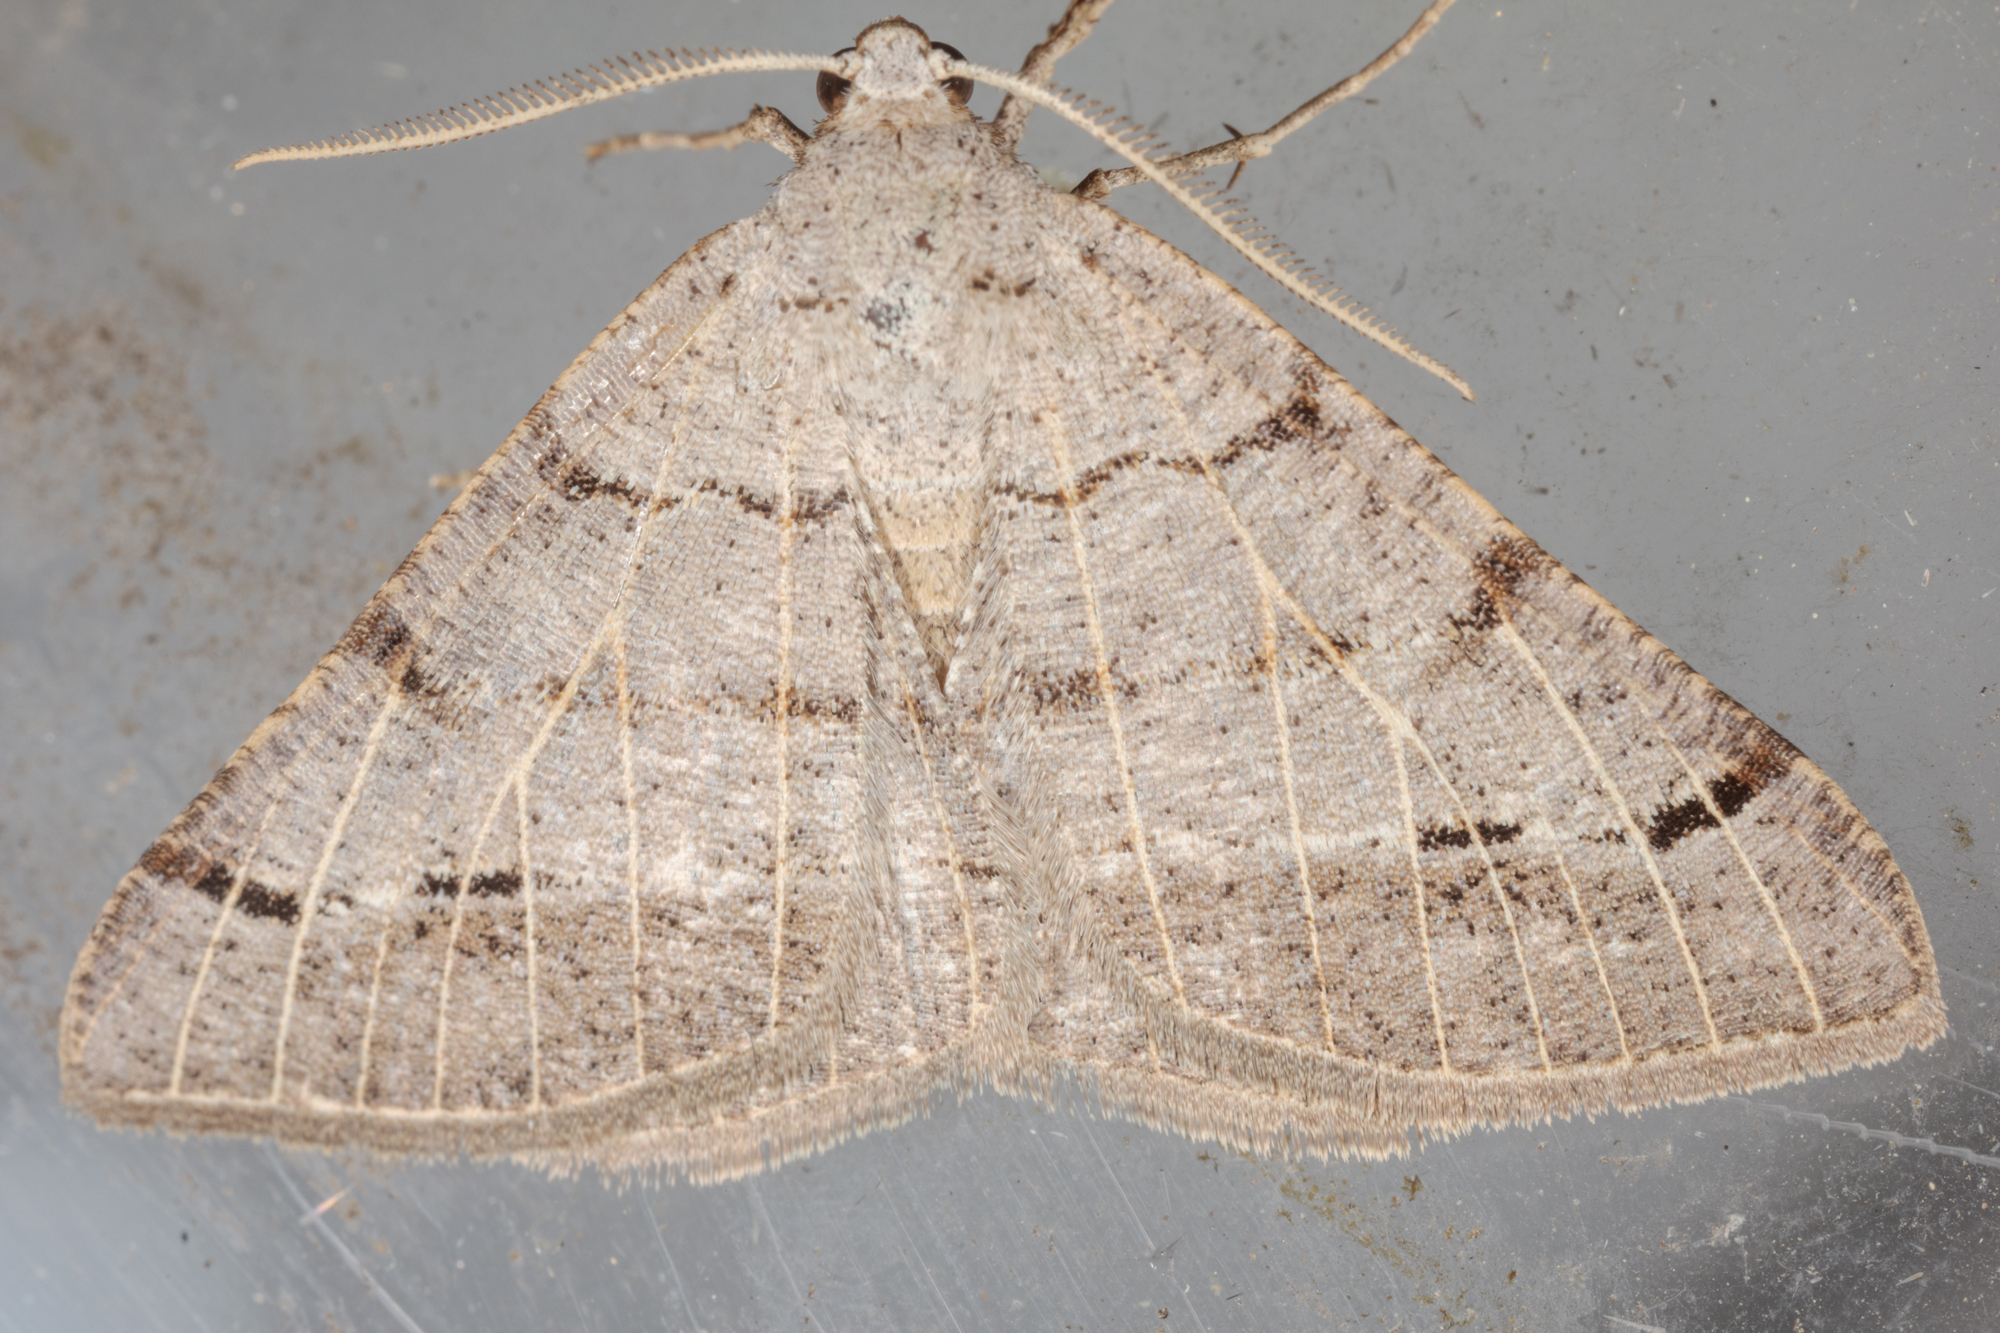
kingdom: Animalia
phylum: Arthropoda
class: Insecta
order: Lepidoptera
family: Geometridae
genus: Isturgia
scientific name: Isturgia dislocaria
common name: Pale-viened enconista
